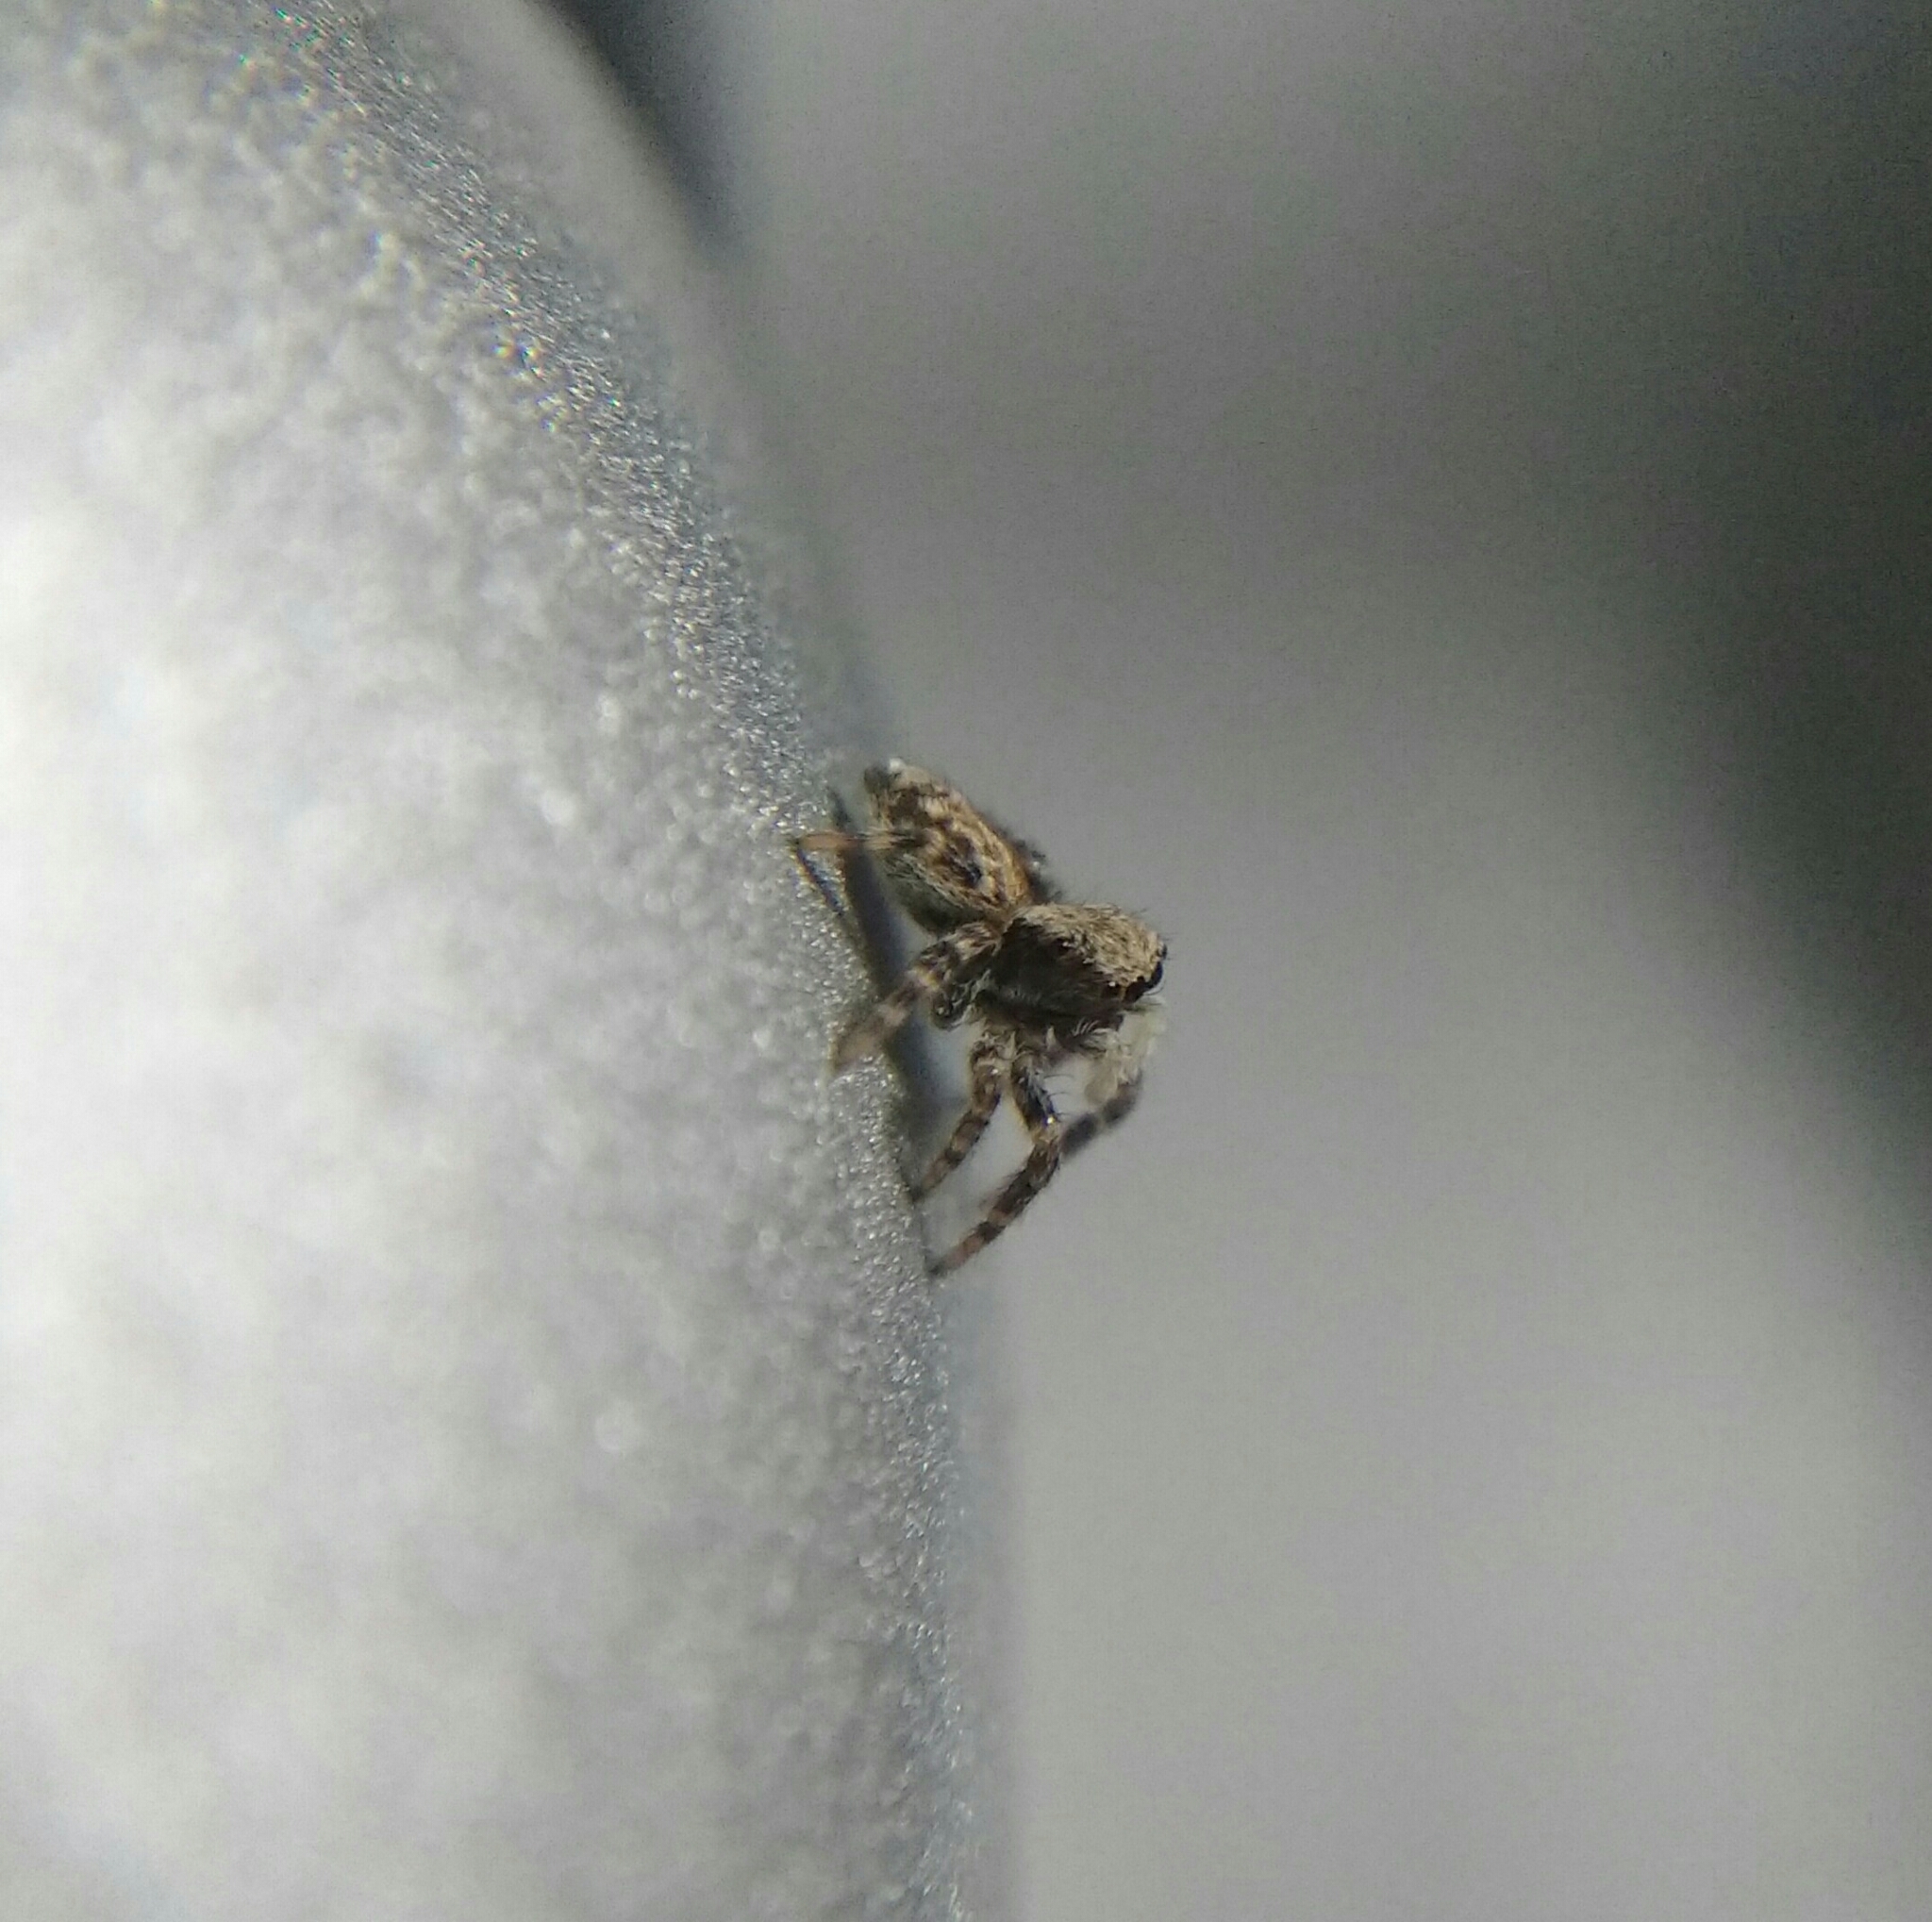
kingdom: Animalia
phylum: Arthropoda
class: Arachnida
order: Araneae
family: Salticidae
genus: Pseudeuophrys
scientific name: Pseudeuophrys lanigera
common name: Jumping spider
